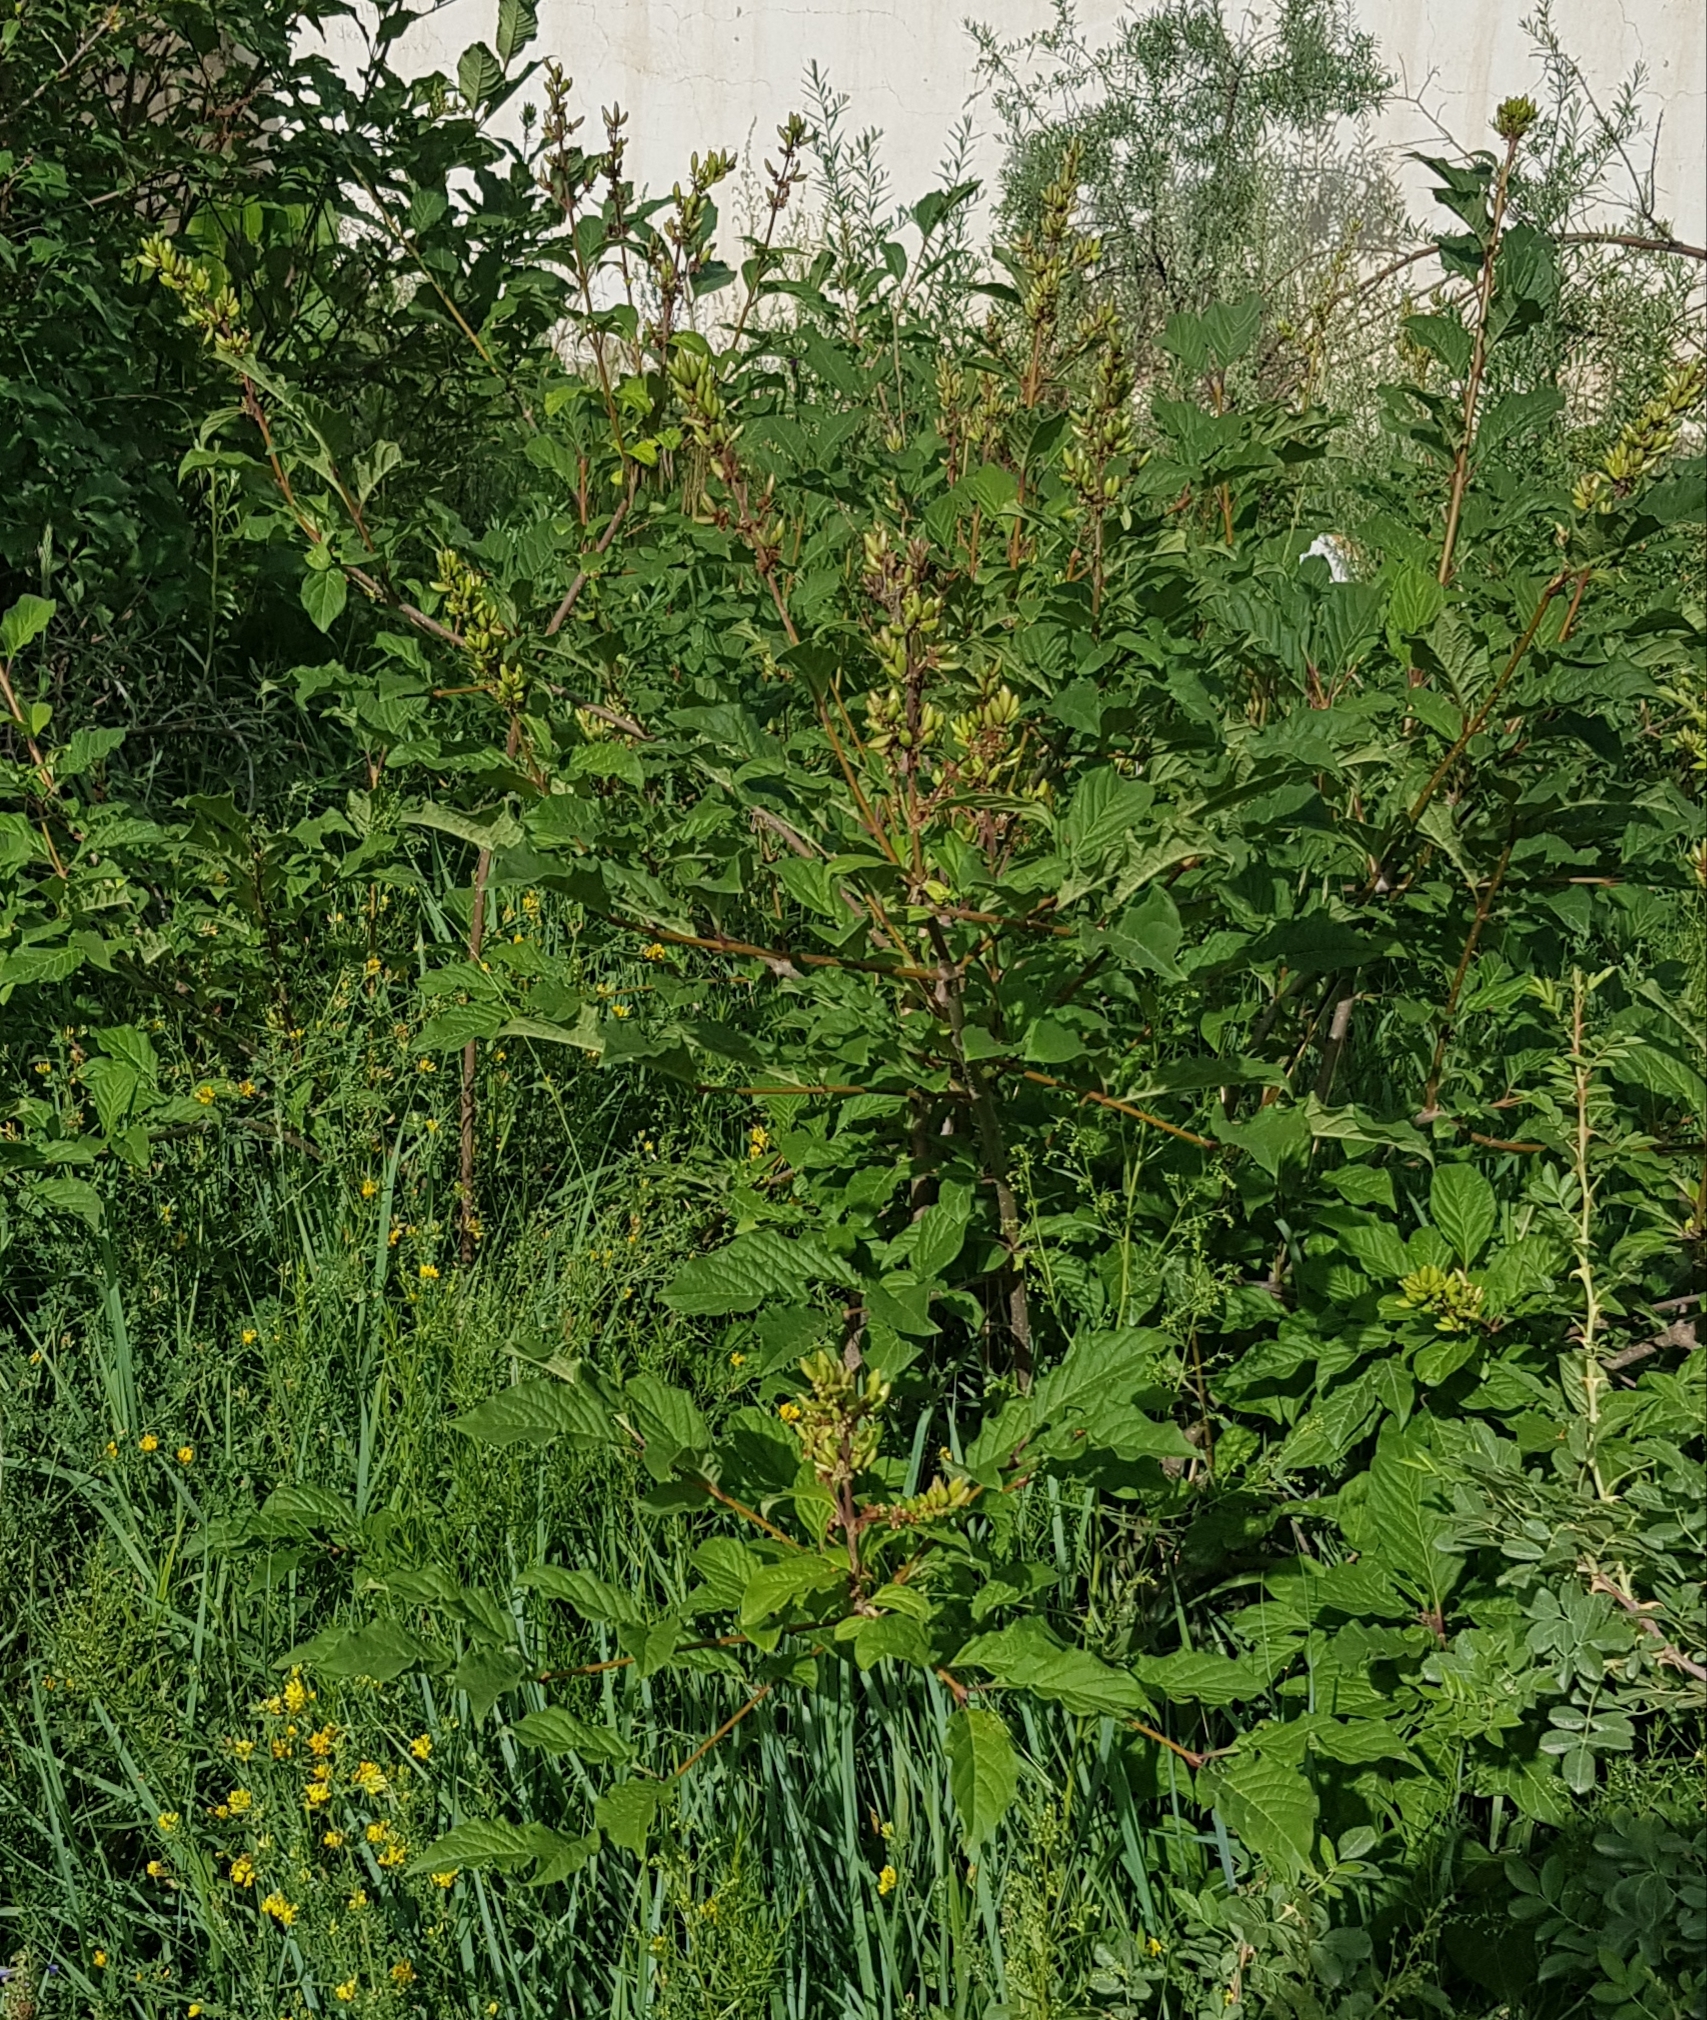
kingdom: Plantae
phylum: Tracheophyta
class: Magnoliopsida
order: Rosales
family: Rosaceae
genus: Prunus
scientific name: Prunus padus
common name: Bird cherry
